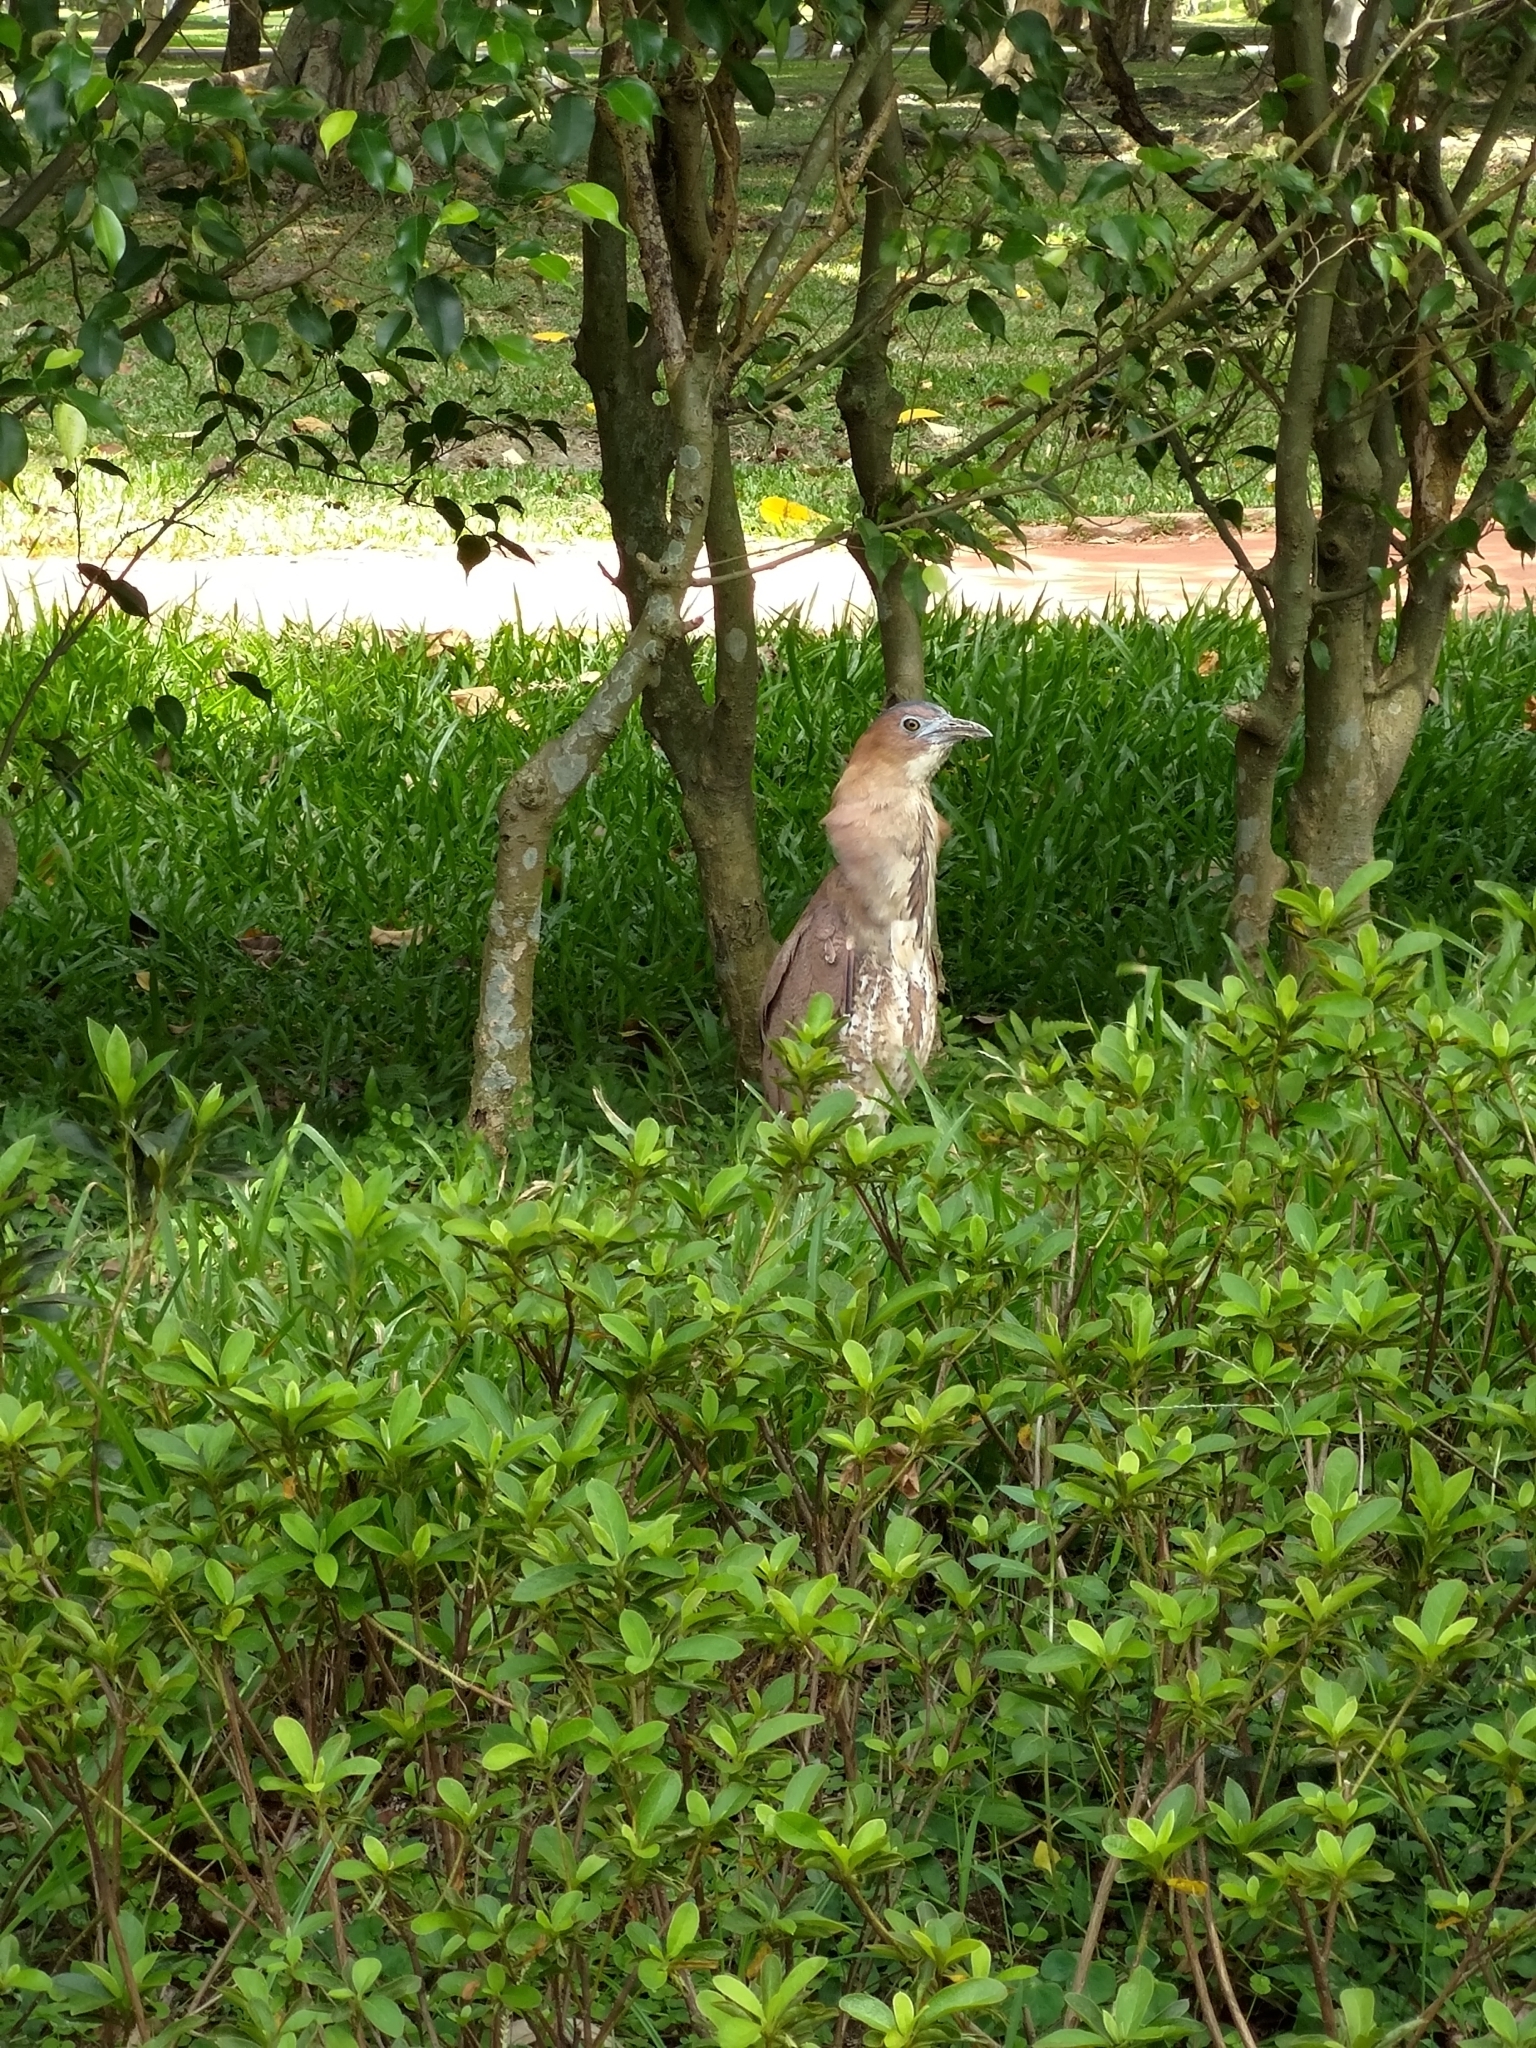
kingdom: Animalia
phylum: Chordata
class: Aves
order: Pelecaniformes
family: Ardeidae
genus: Gorsachius
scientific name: Gorsachius melanolophus
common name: Malayan night heron
